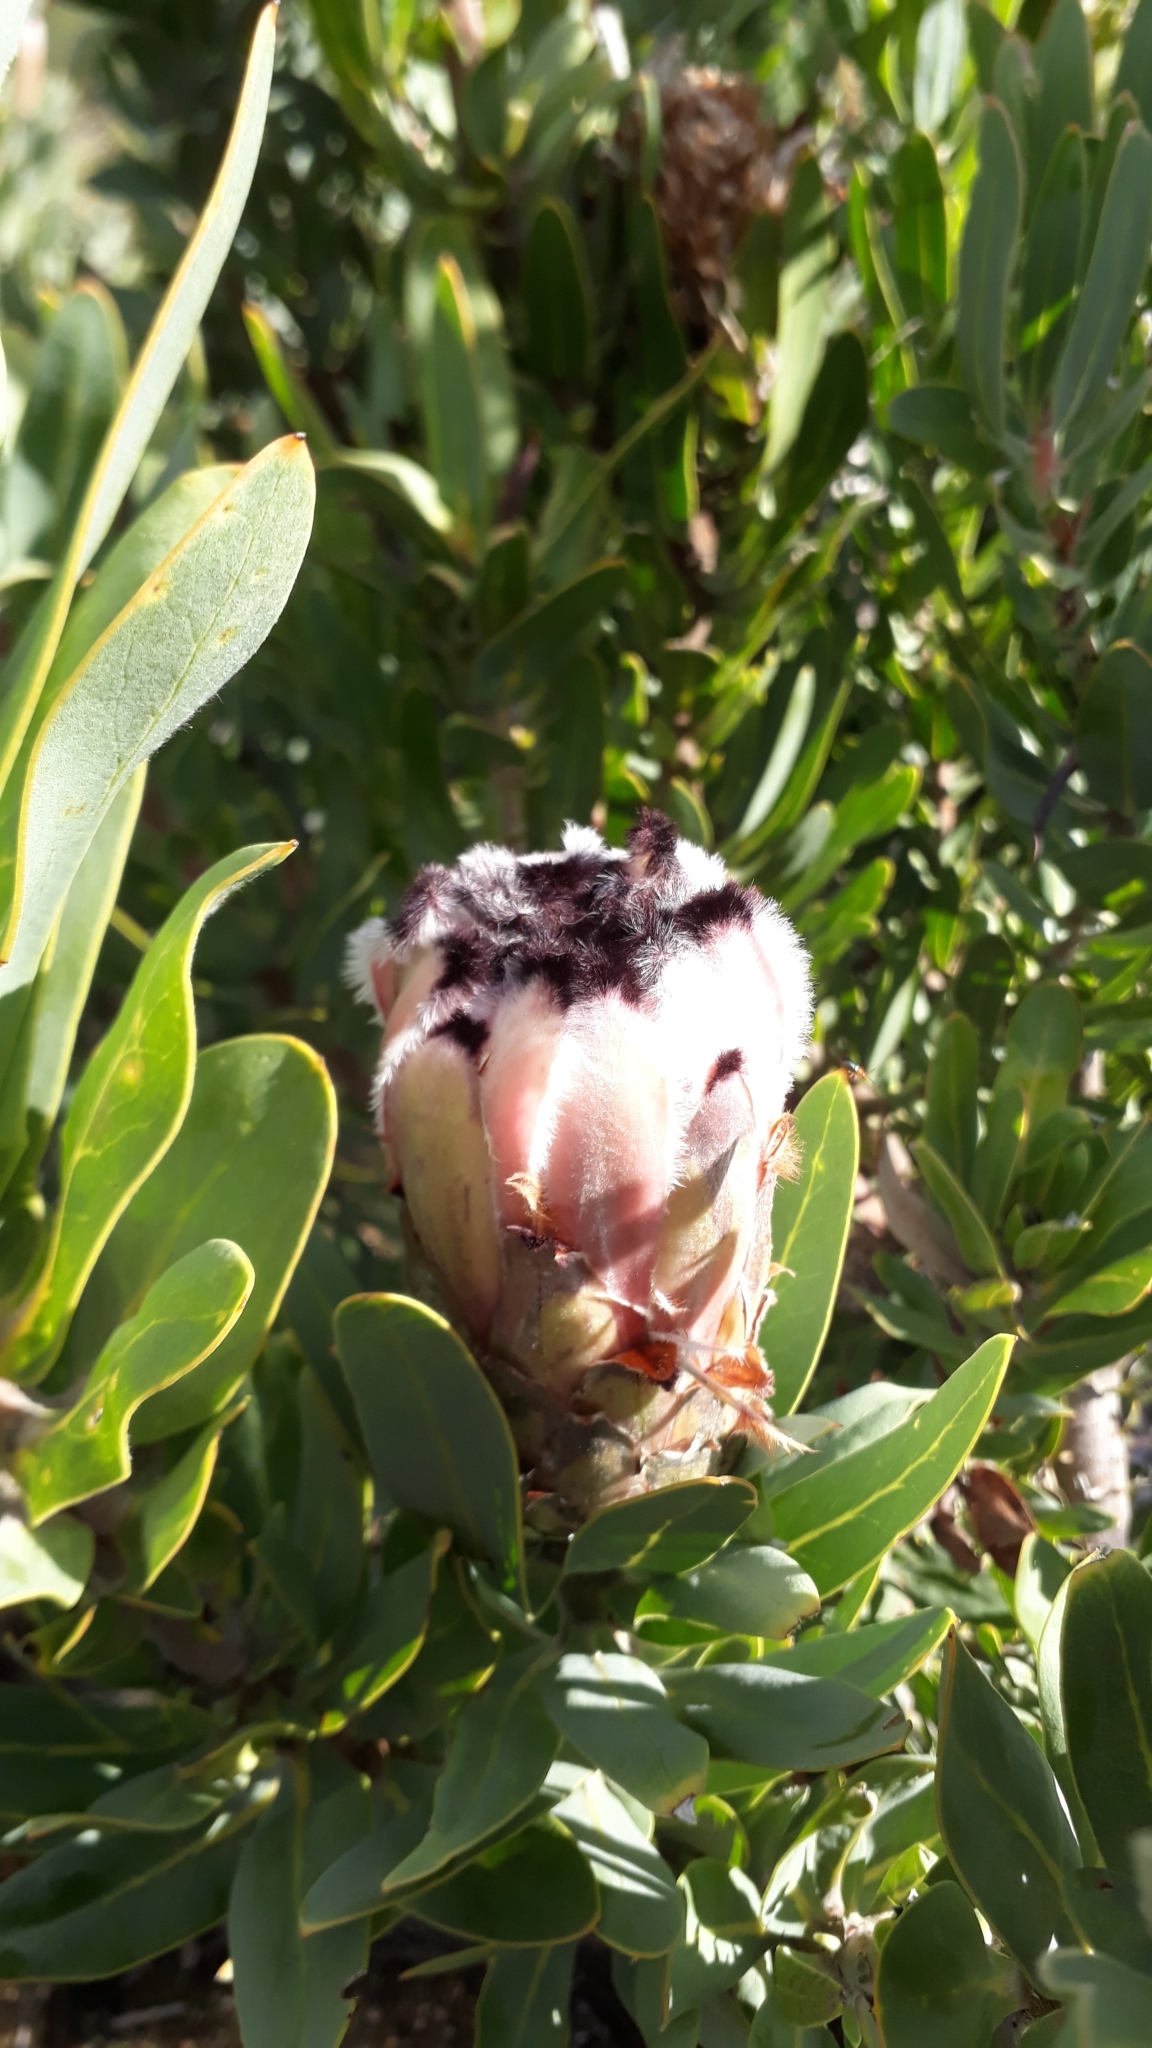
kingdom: Plantae
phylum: Tracheophyta
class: Magnoliopsida
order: Proteales
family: Proteaceae
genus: Protea
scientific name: Protea laurifolia
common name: Grey-leaf sugarbsh
